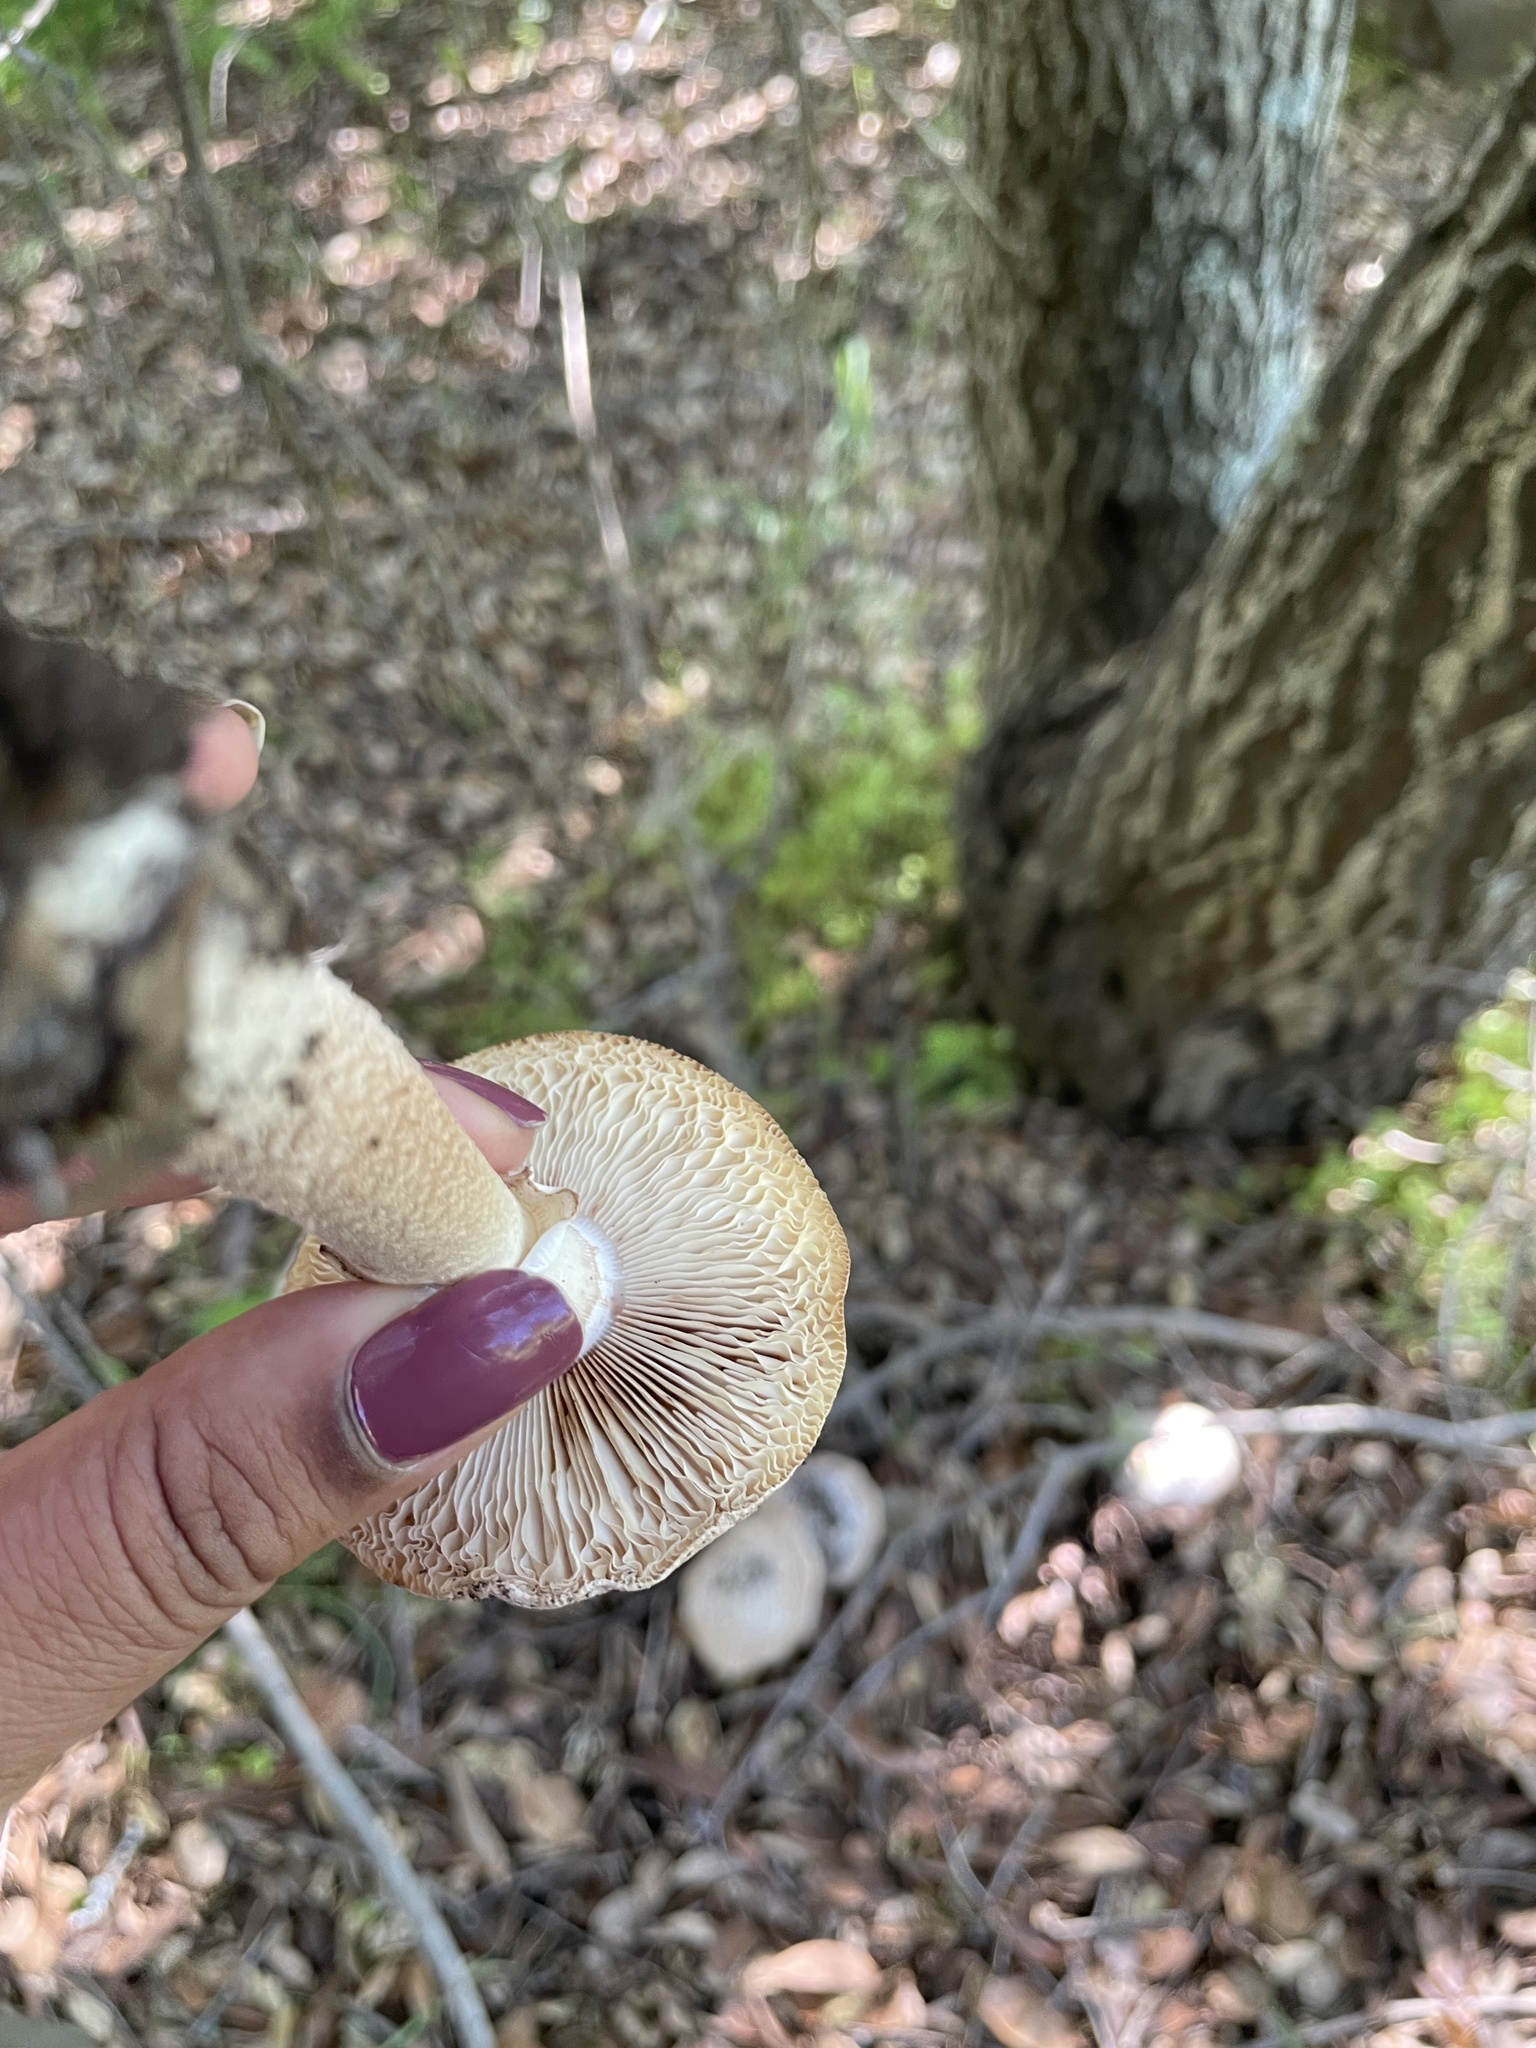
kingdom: Fungi
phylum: Basidiomycota
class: Agaricomycetes
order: Agaricales
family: Amanitaceae
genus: Amanita
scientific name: Amanita novinupta
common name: Blushing bride
